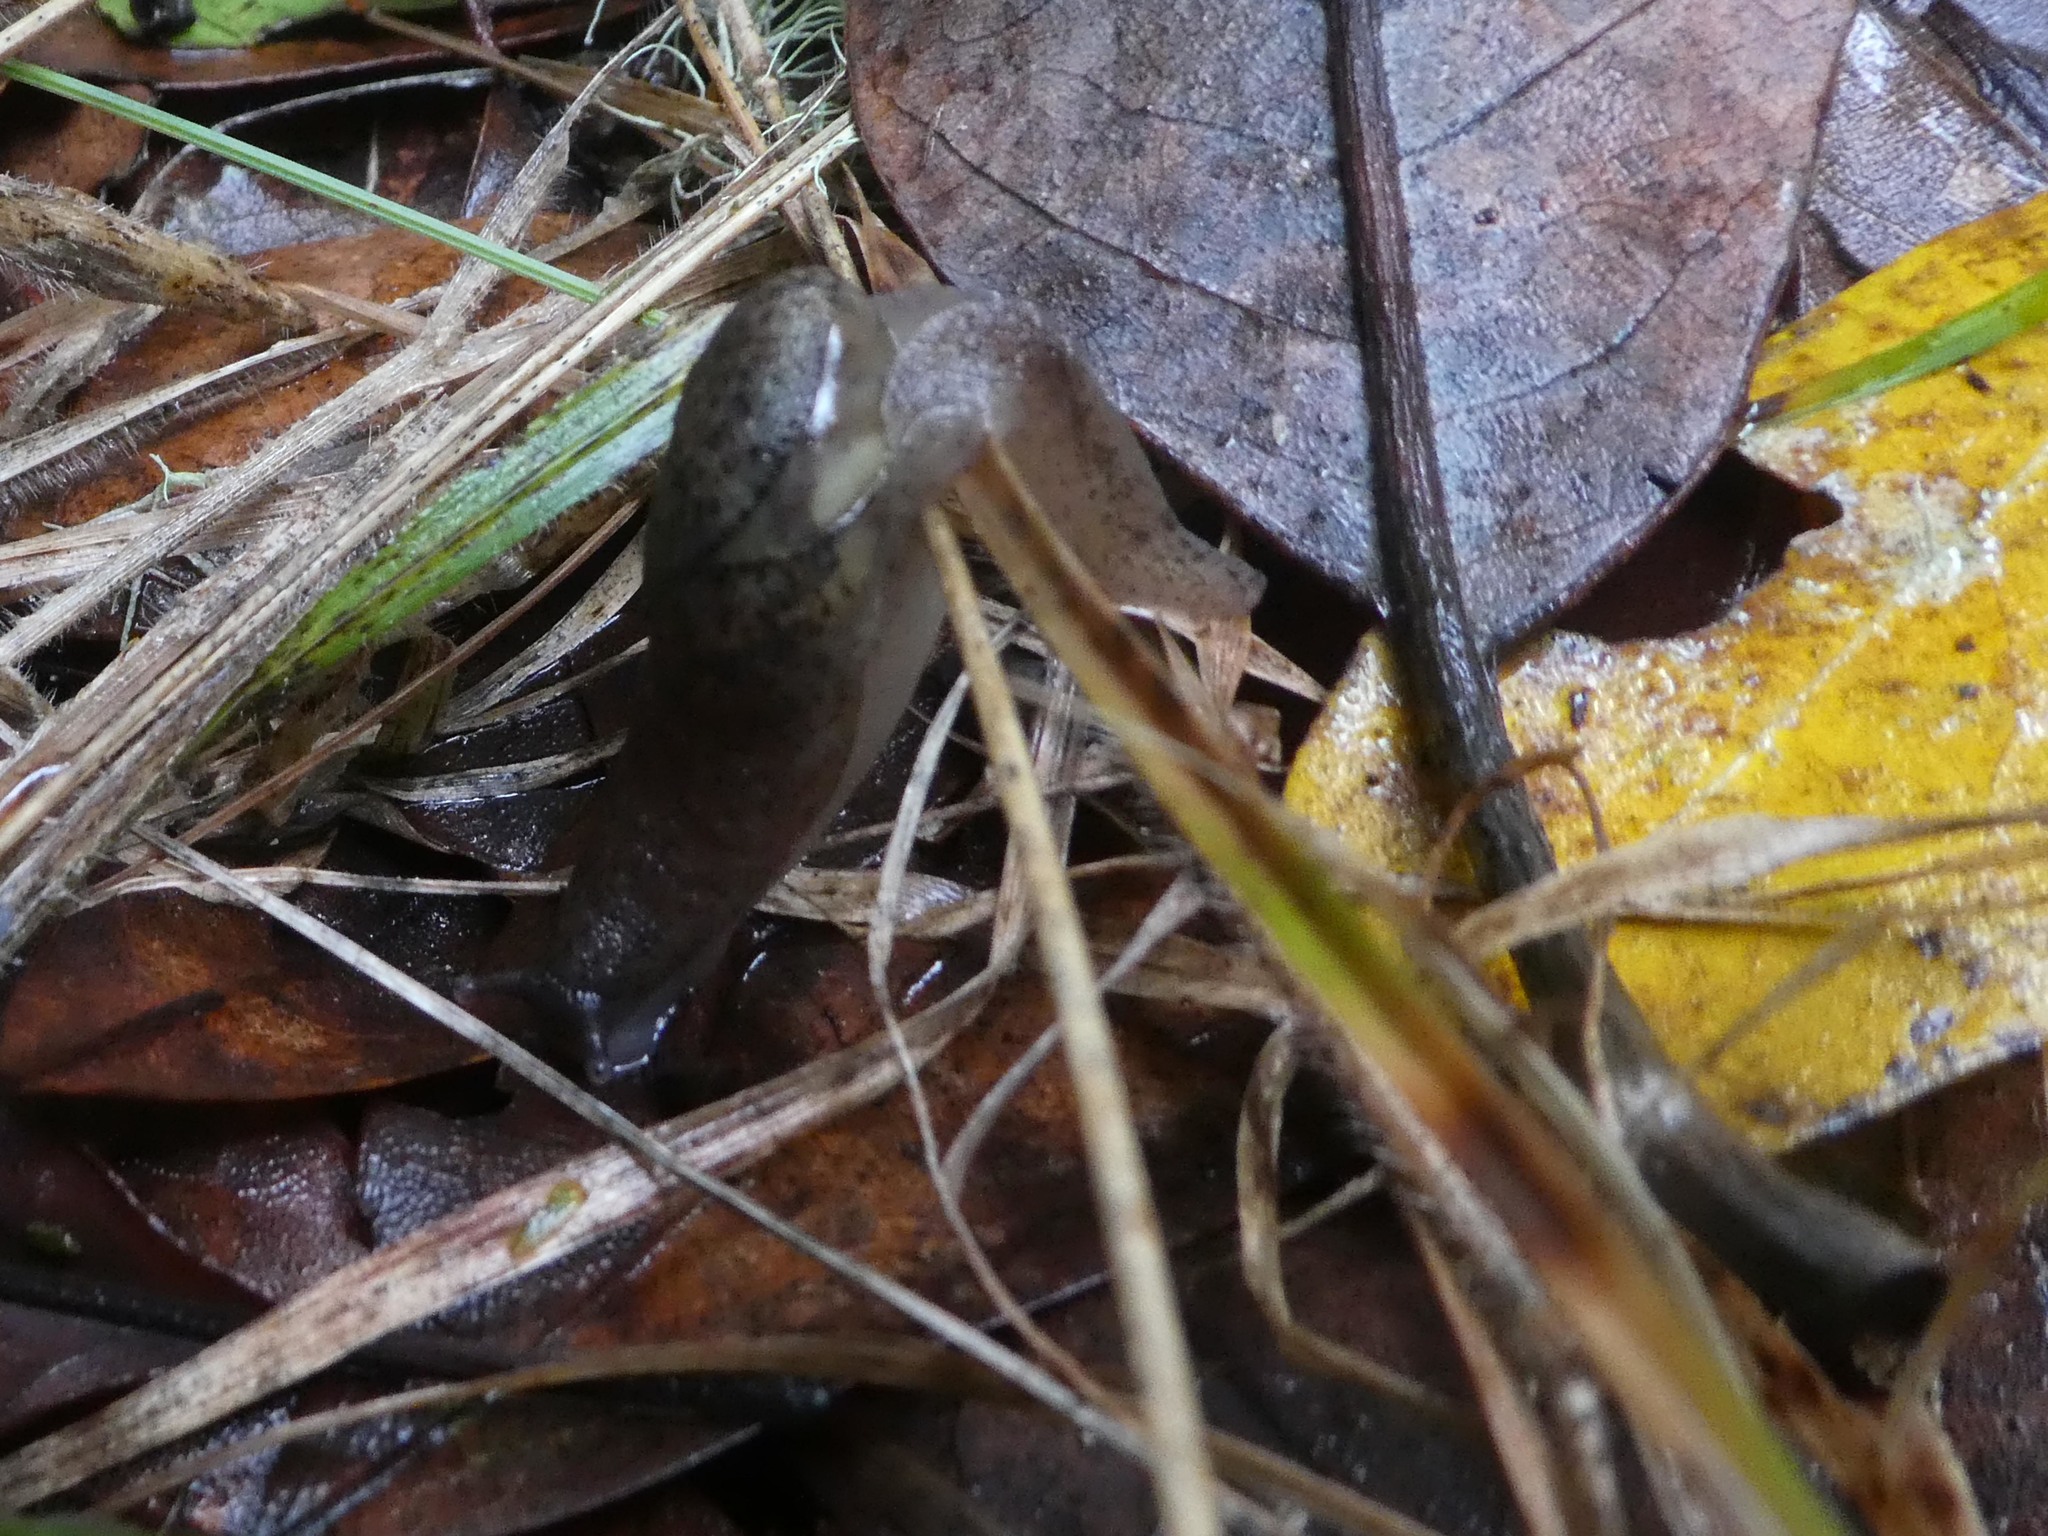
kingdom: Animalia
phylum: Mollusca
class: Gastropoda
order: Stylommatophora
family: Vitrinidae
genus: Insulivitrina
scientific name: Insulivitrina lamarckii
